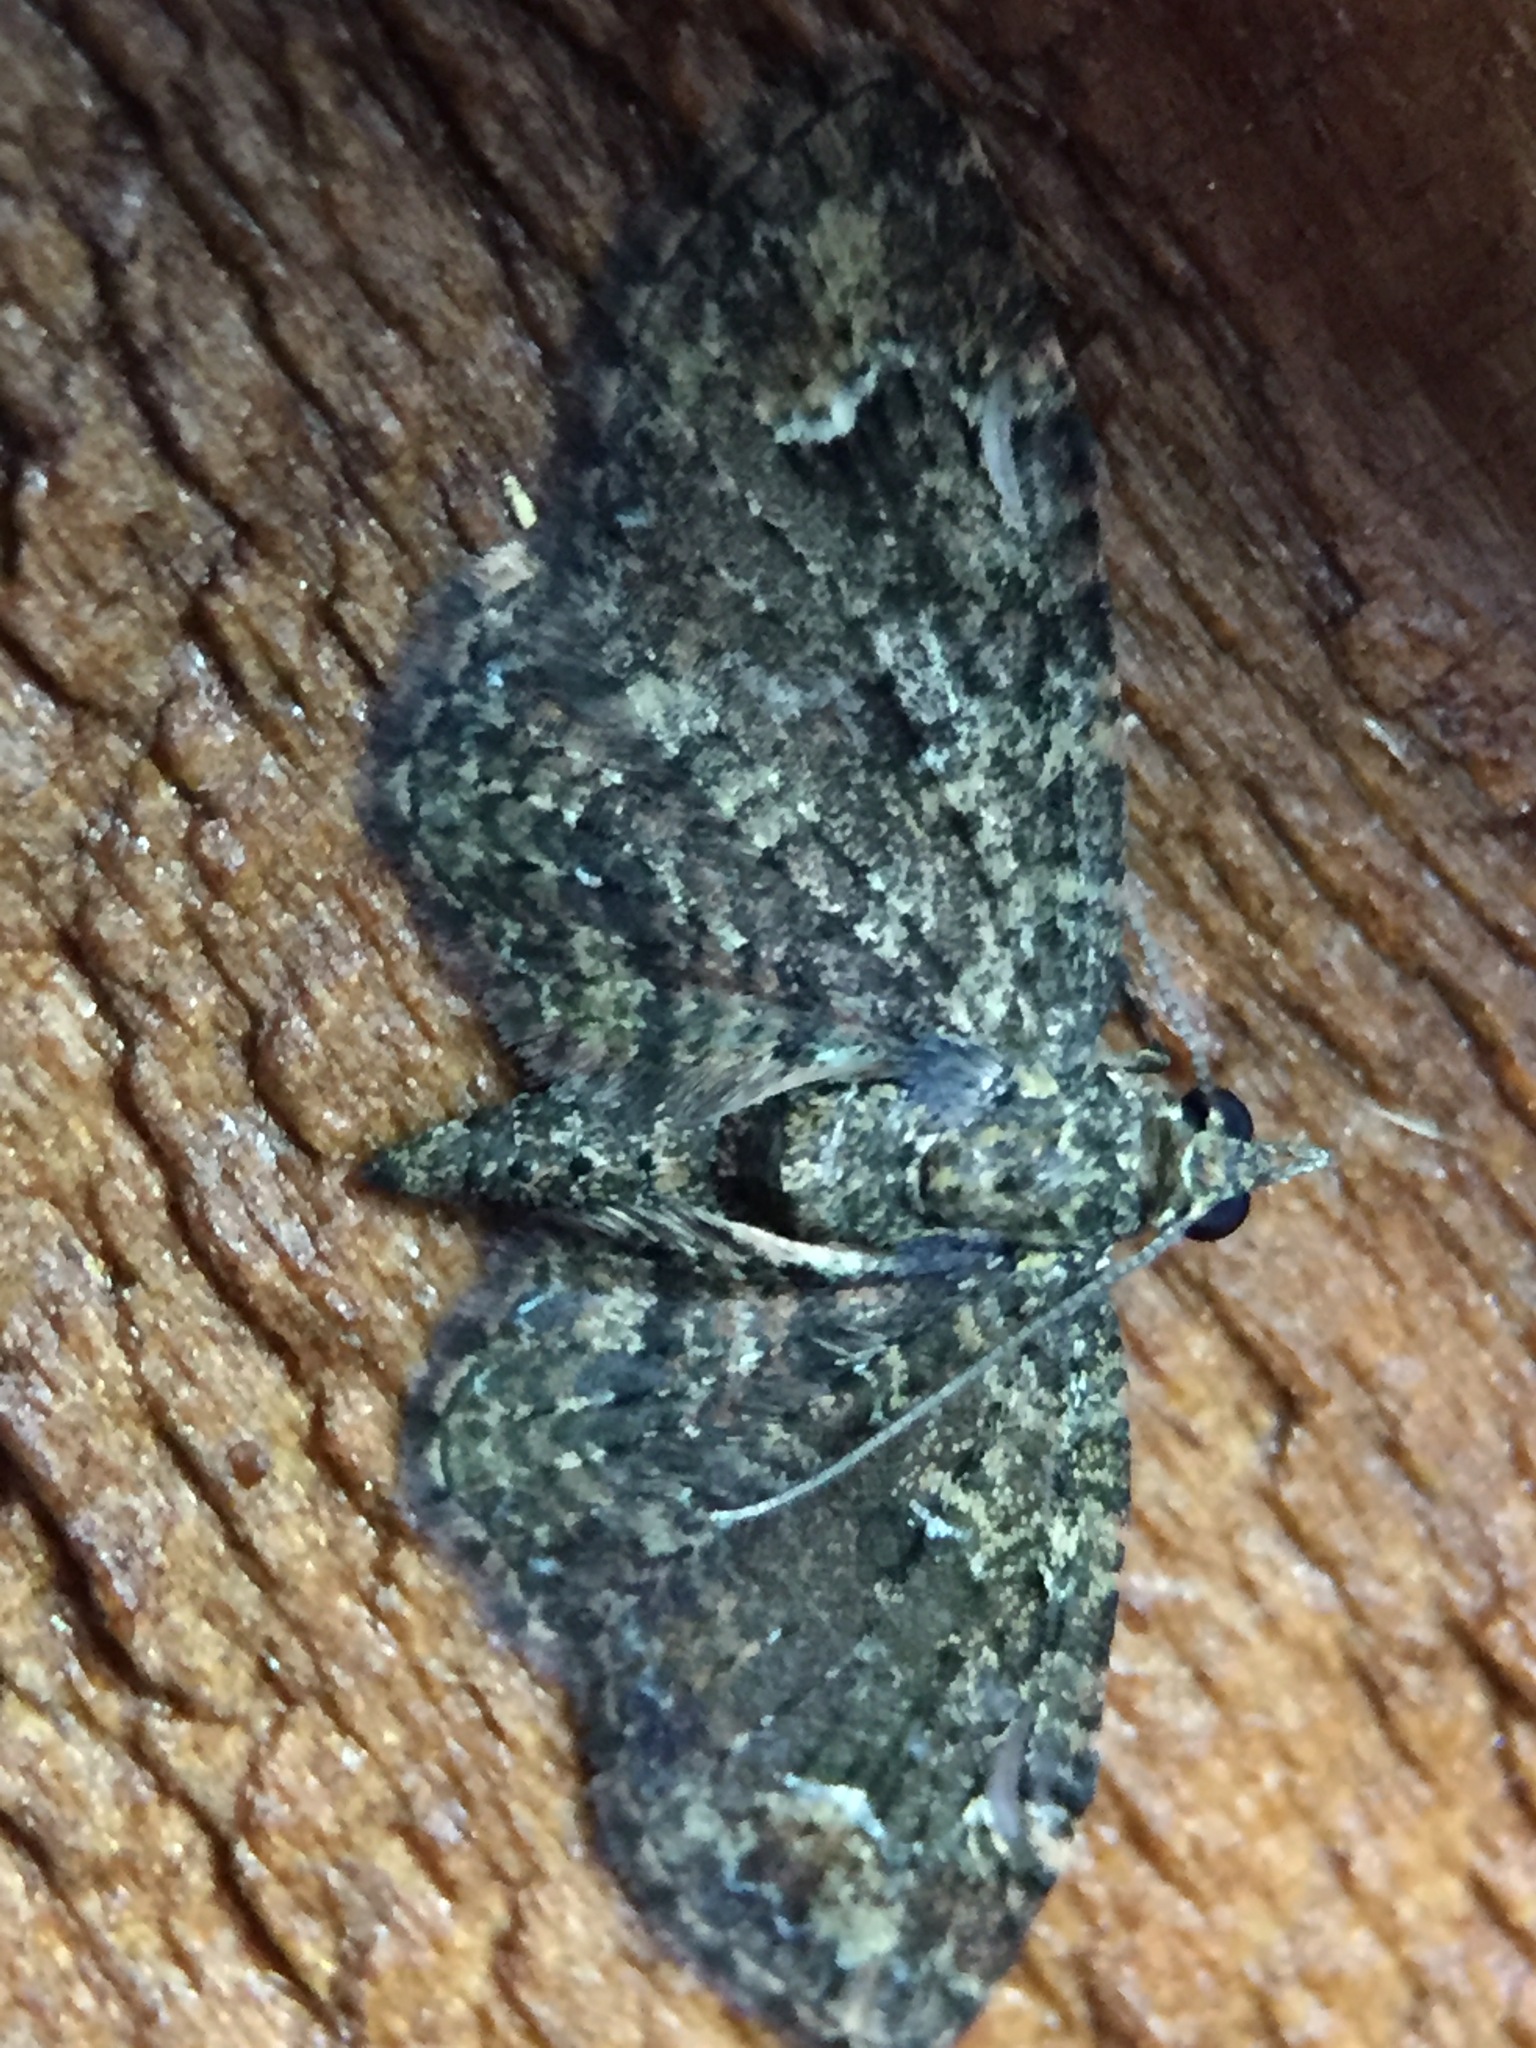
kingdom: Animalia
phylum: Arthropoda
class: Insecta
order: Lepidoptera
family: Geometridae
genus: Pasiphilodes
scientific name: Pasiphilodes testulata
